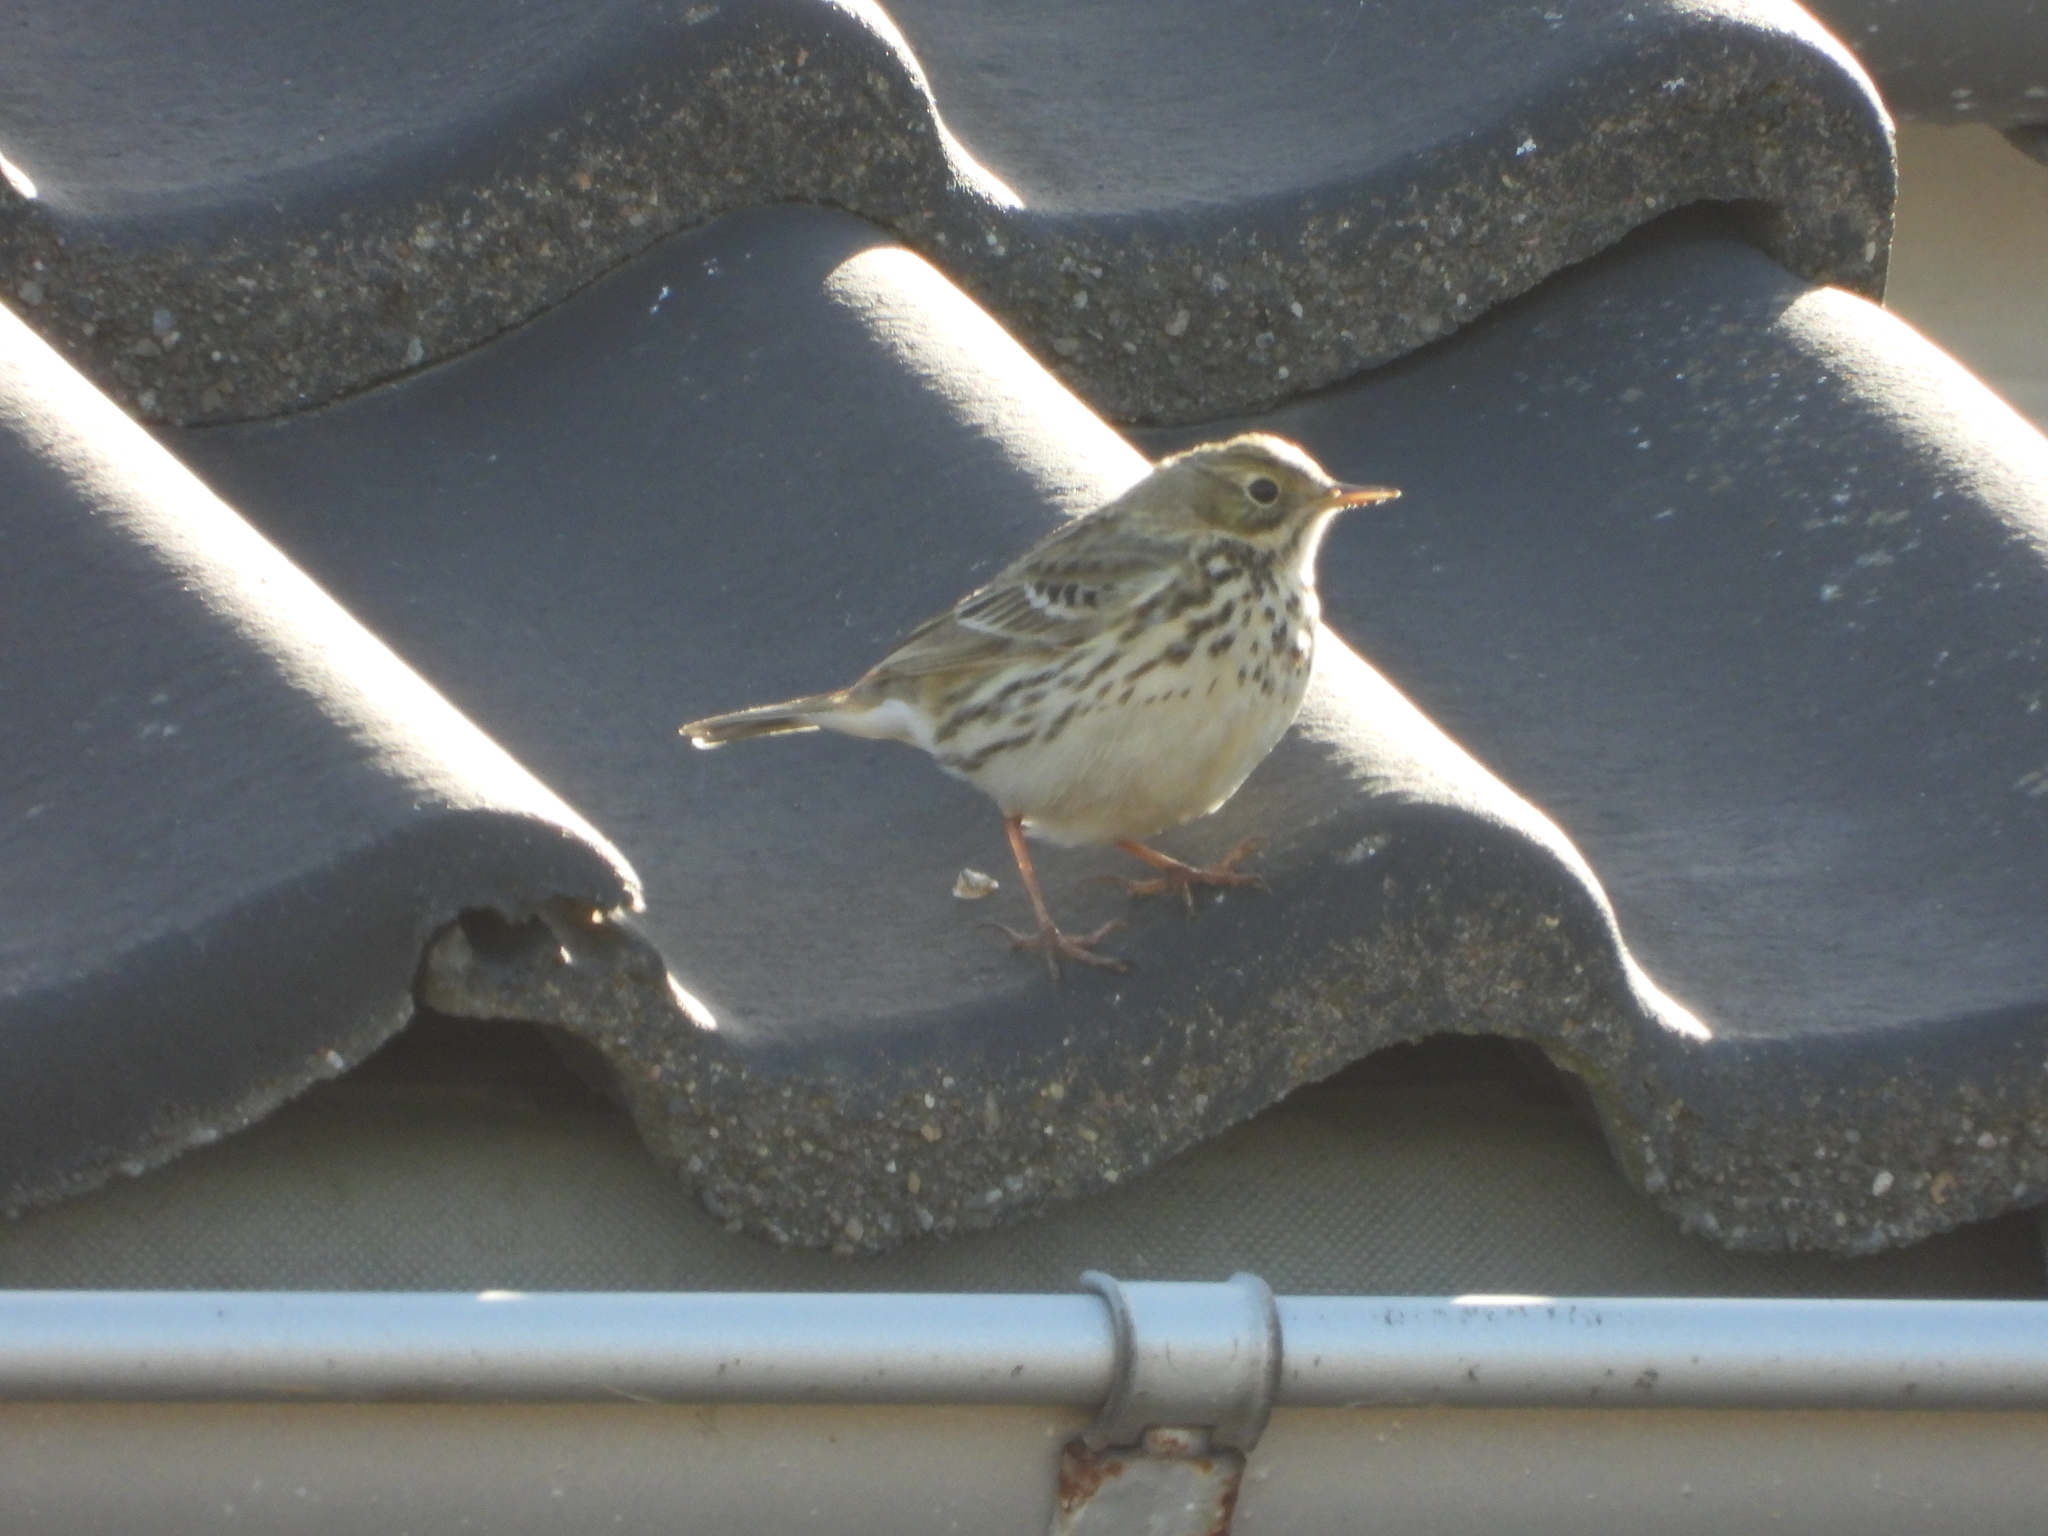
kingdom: Animalia
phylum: Chordata
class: Aves
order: Passeriformes
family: Motacillidae
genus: Anthus
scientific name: Anthus pratensis
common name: Meadow pipit
